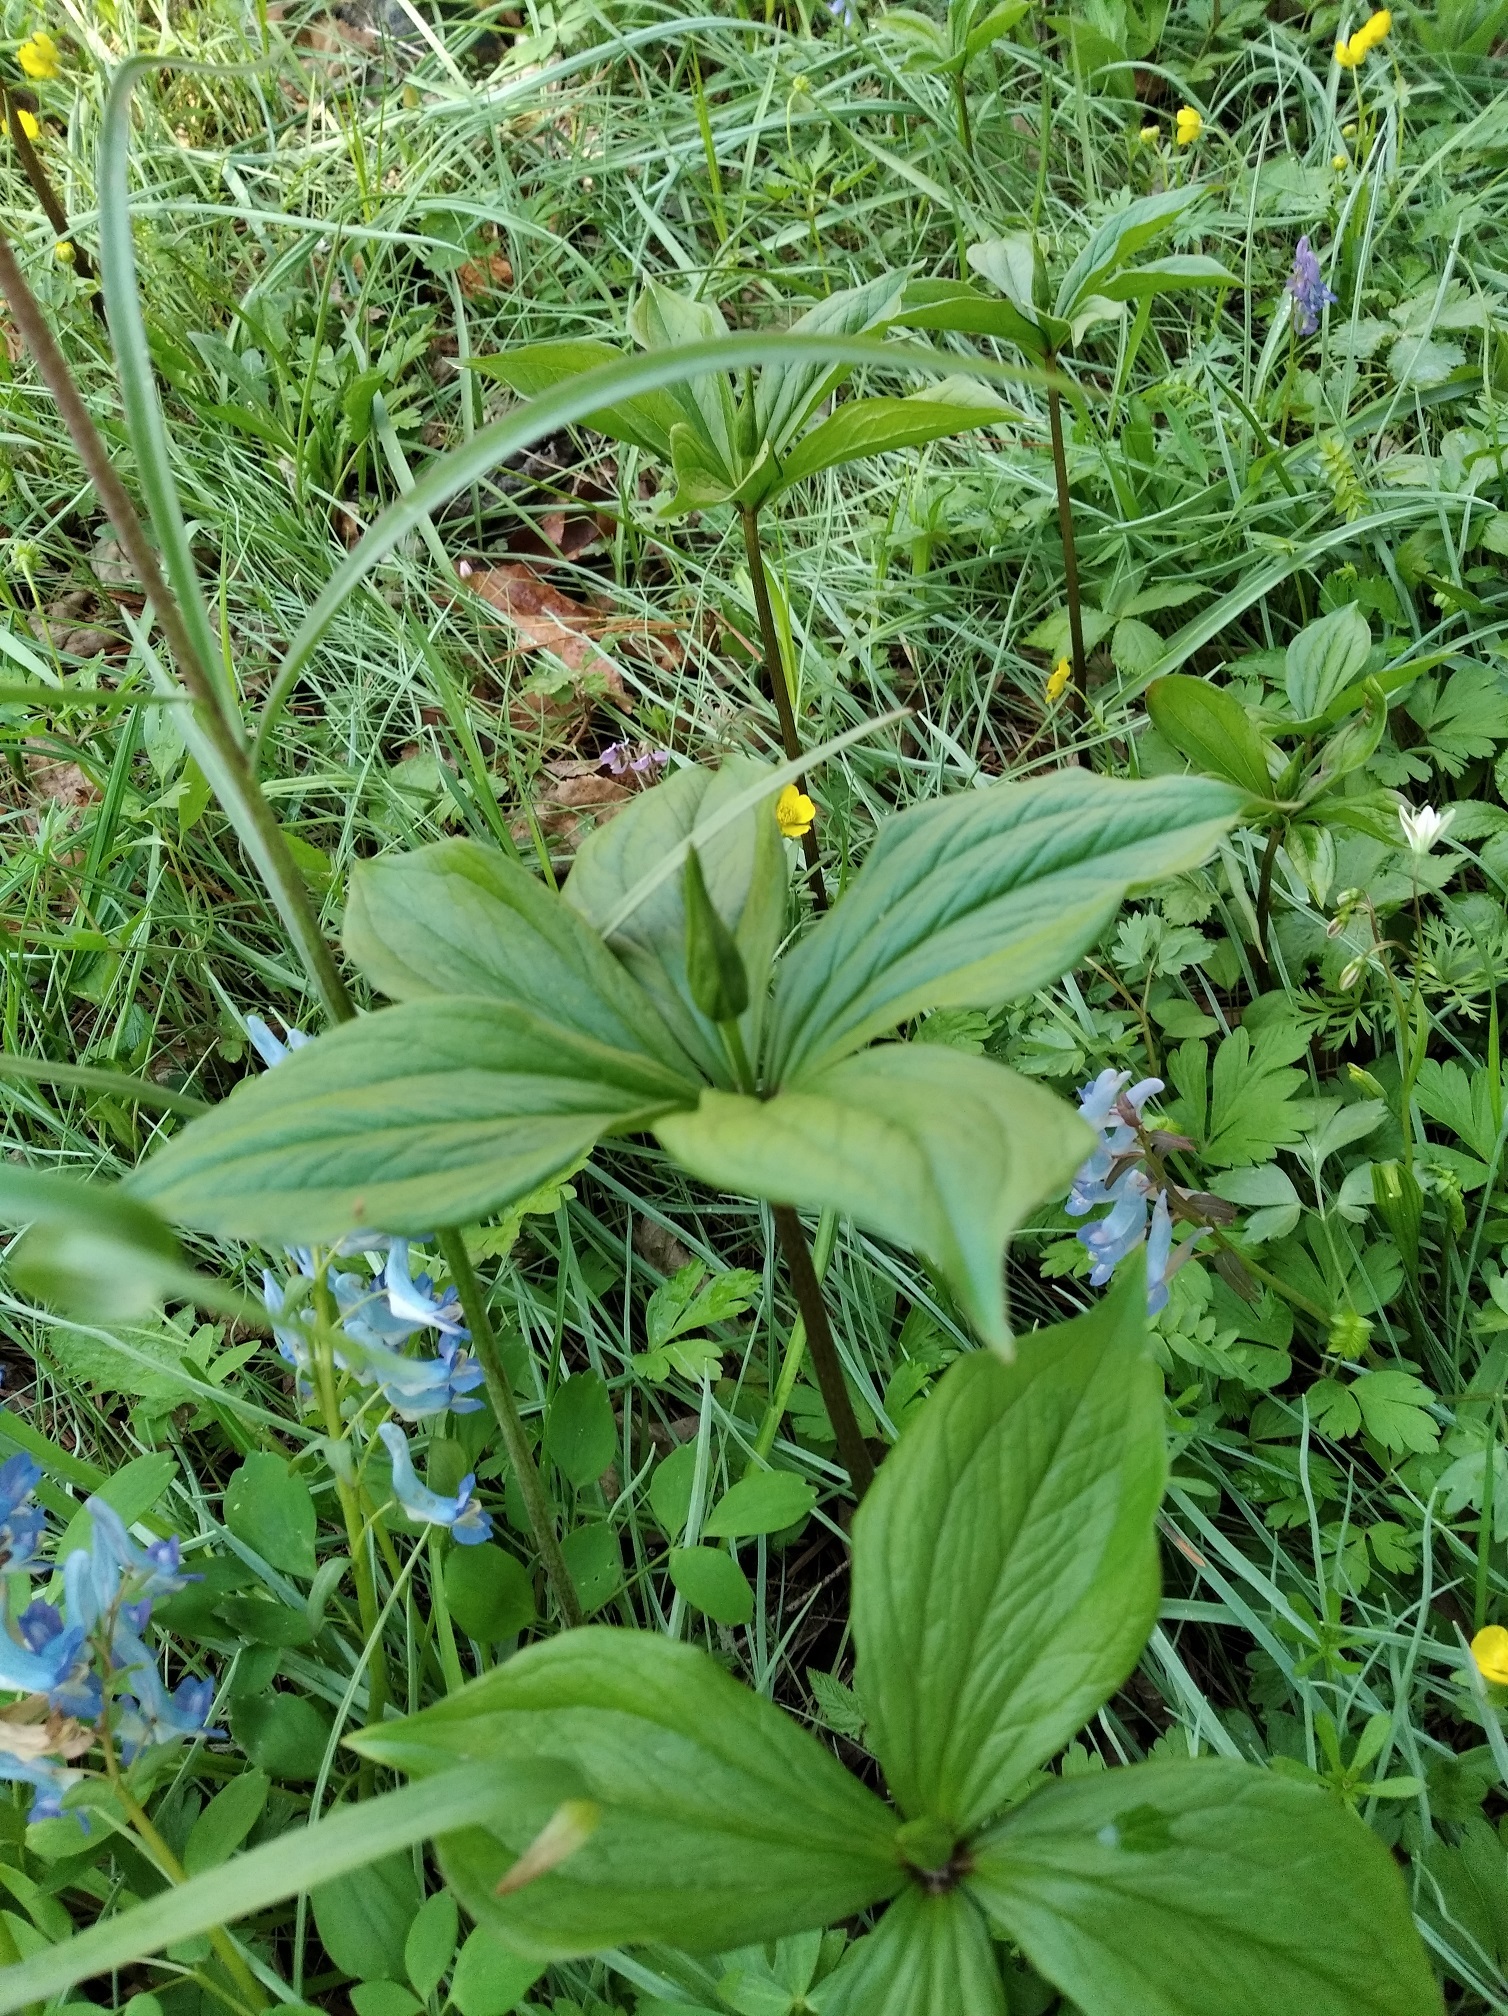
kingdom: Plantae
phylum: Tracheophyta
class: Liliopsida
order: Liliales
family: Melanthiaceae
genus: Paris
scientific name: Paris verticillata
